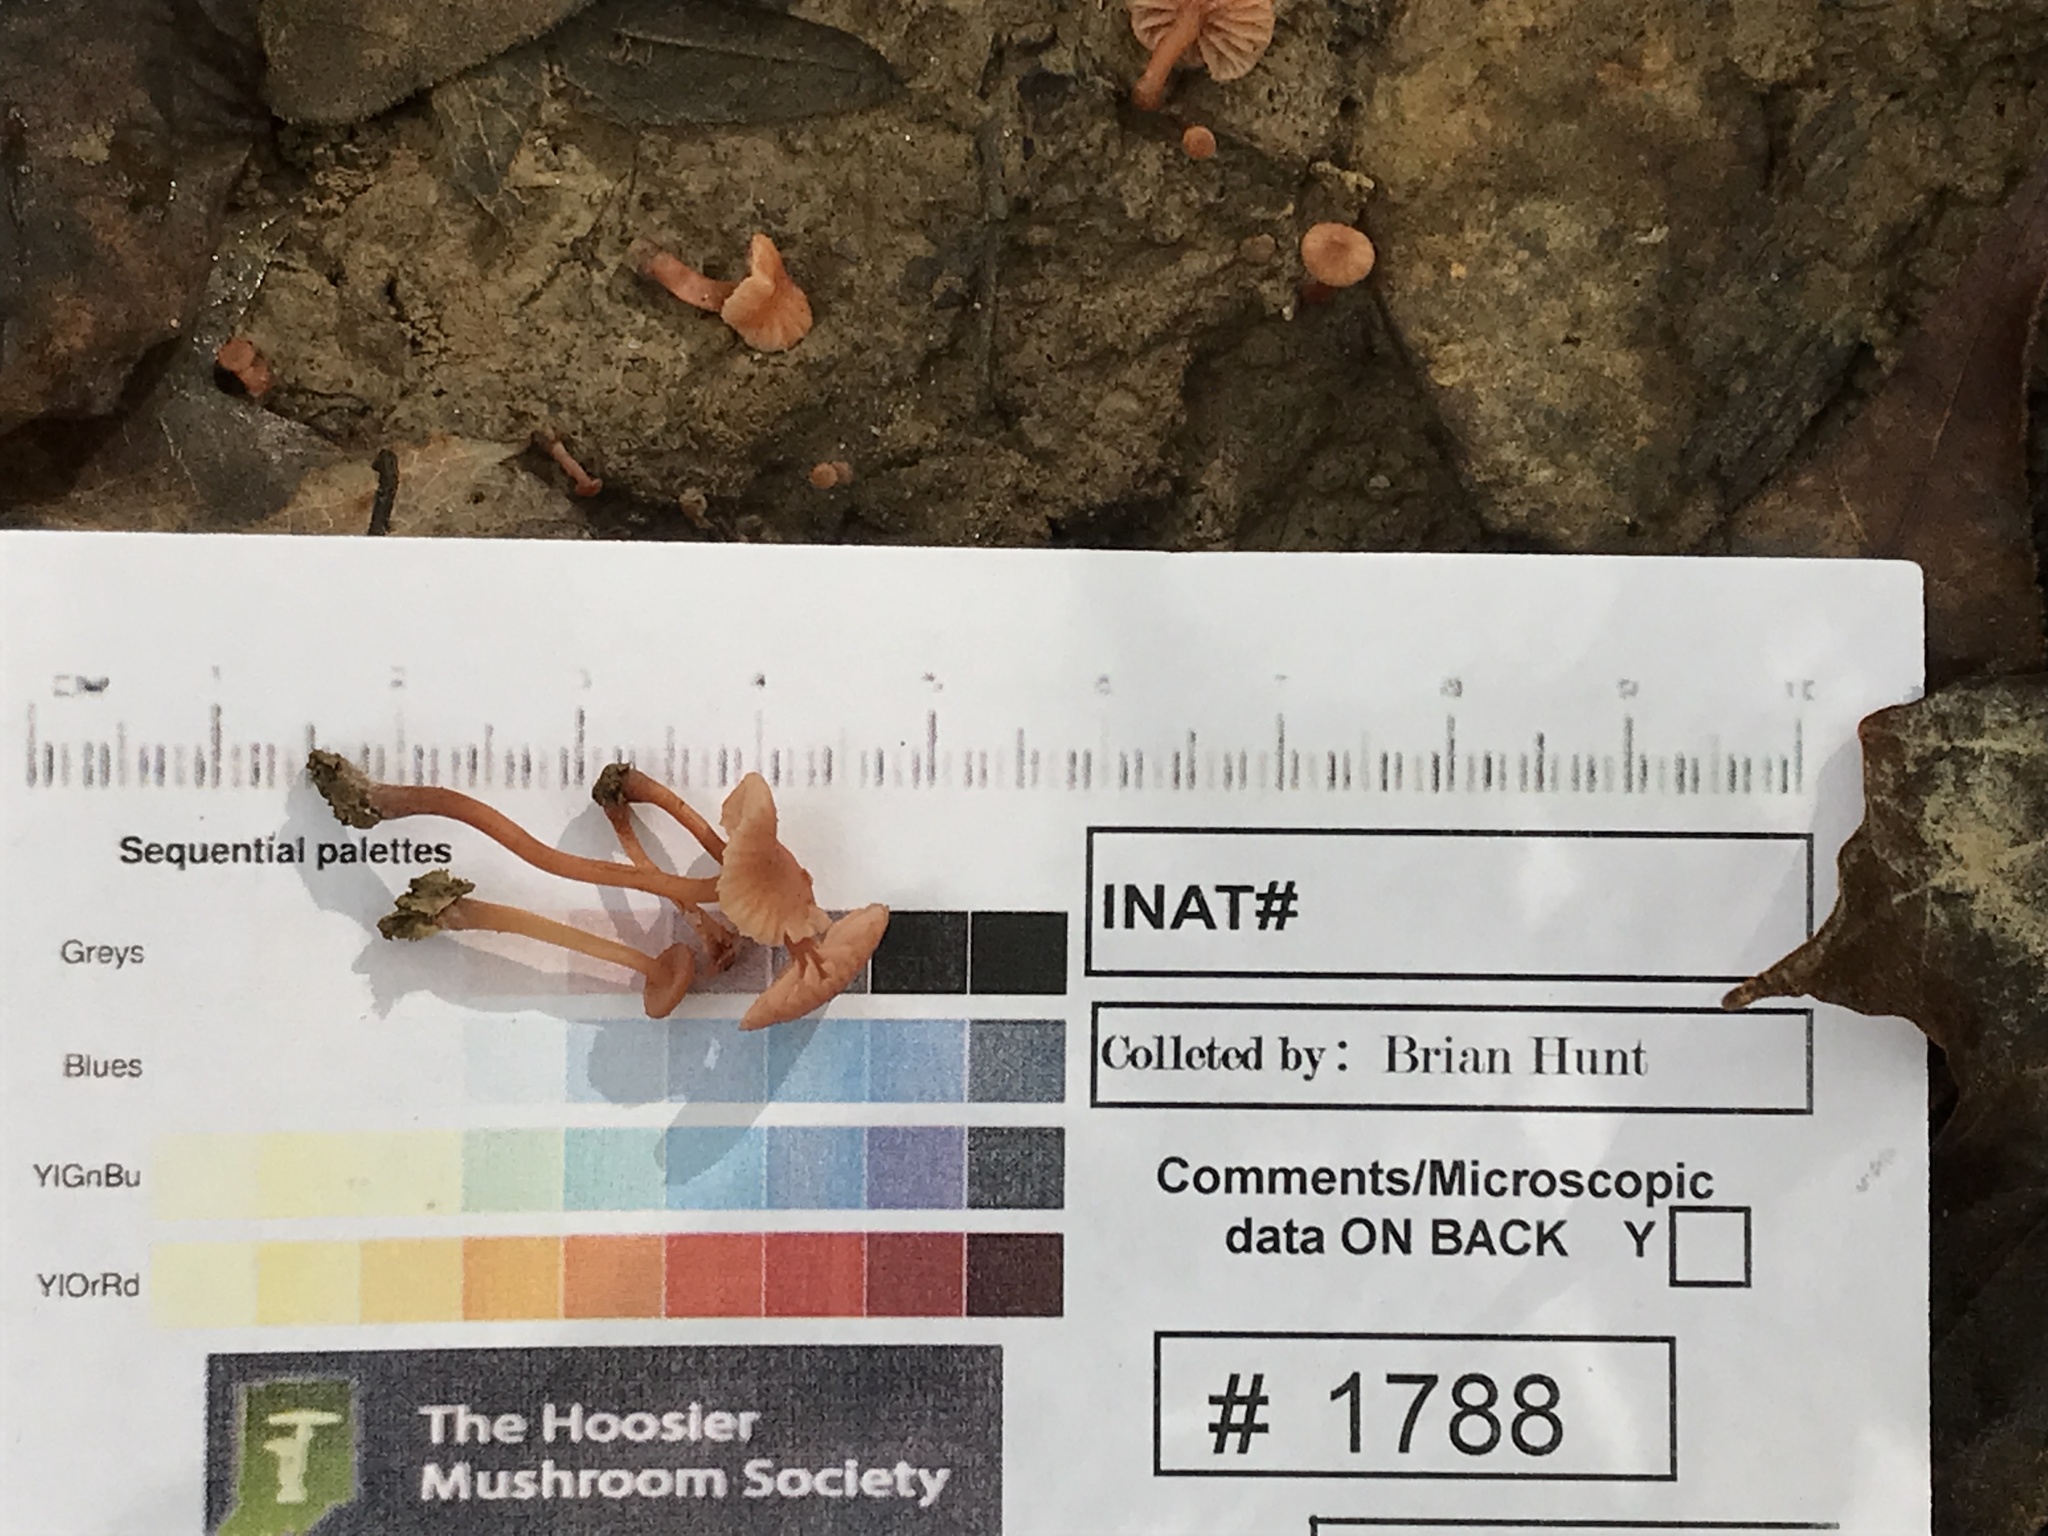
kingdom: Fungi
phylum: Basidiomycota
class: Agaricomycetes
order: Agaricales
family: Hydnangiaceae
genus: Laccaria
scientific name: Laccaria laccata
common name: Deceiver
